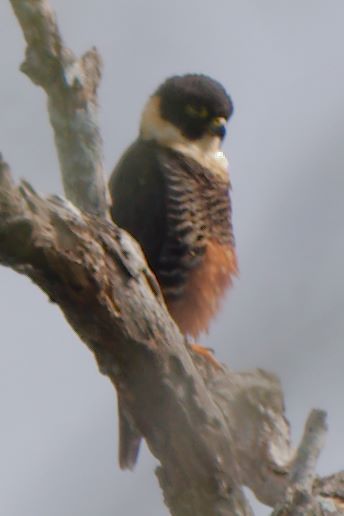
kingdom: Animalia
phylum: Chordata
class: Aves
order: Falconiformes
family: Falconidae
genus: Falco
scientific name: Falco rufigularis
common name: Bat falcon
